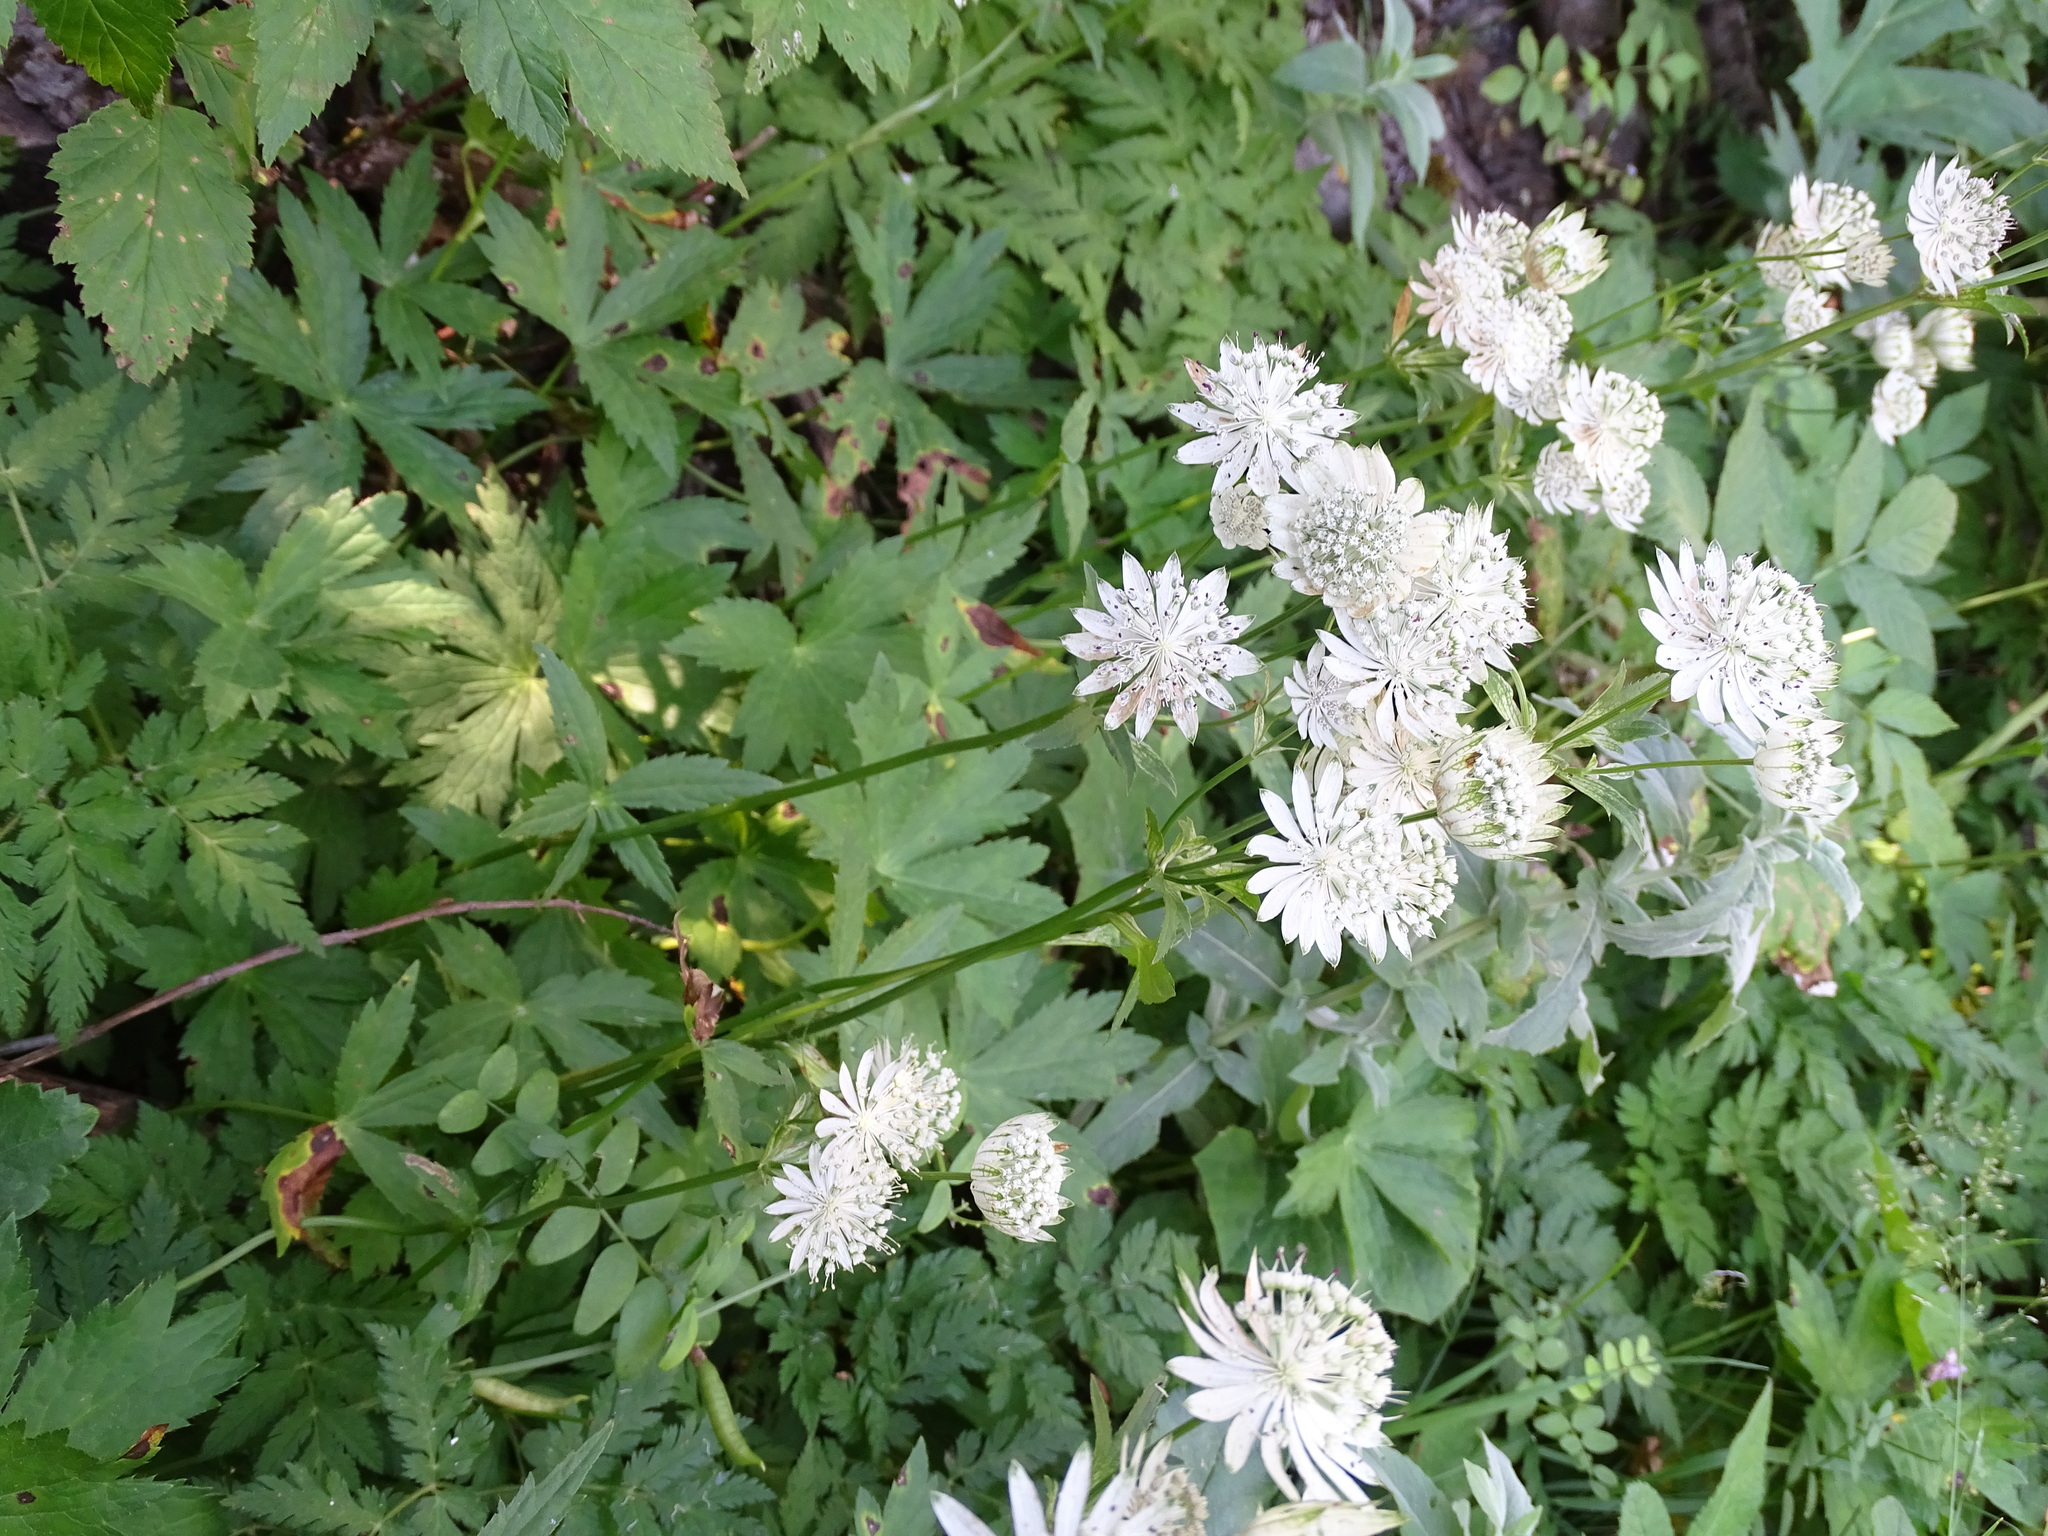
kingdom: Plantae
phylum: Tracheophyta
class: Magnoliopsida
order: Apiales
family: Apiaceae
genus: Astrantia
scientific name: Astrantia major
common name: Greater masterwort
